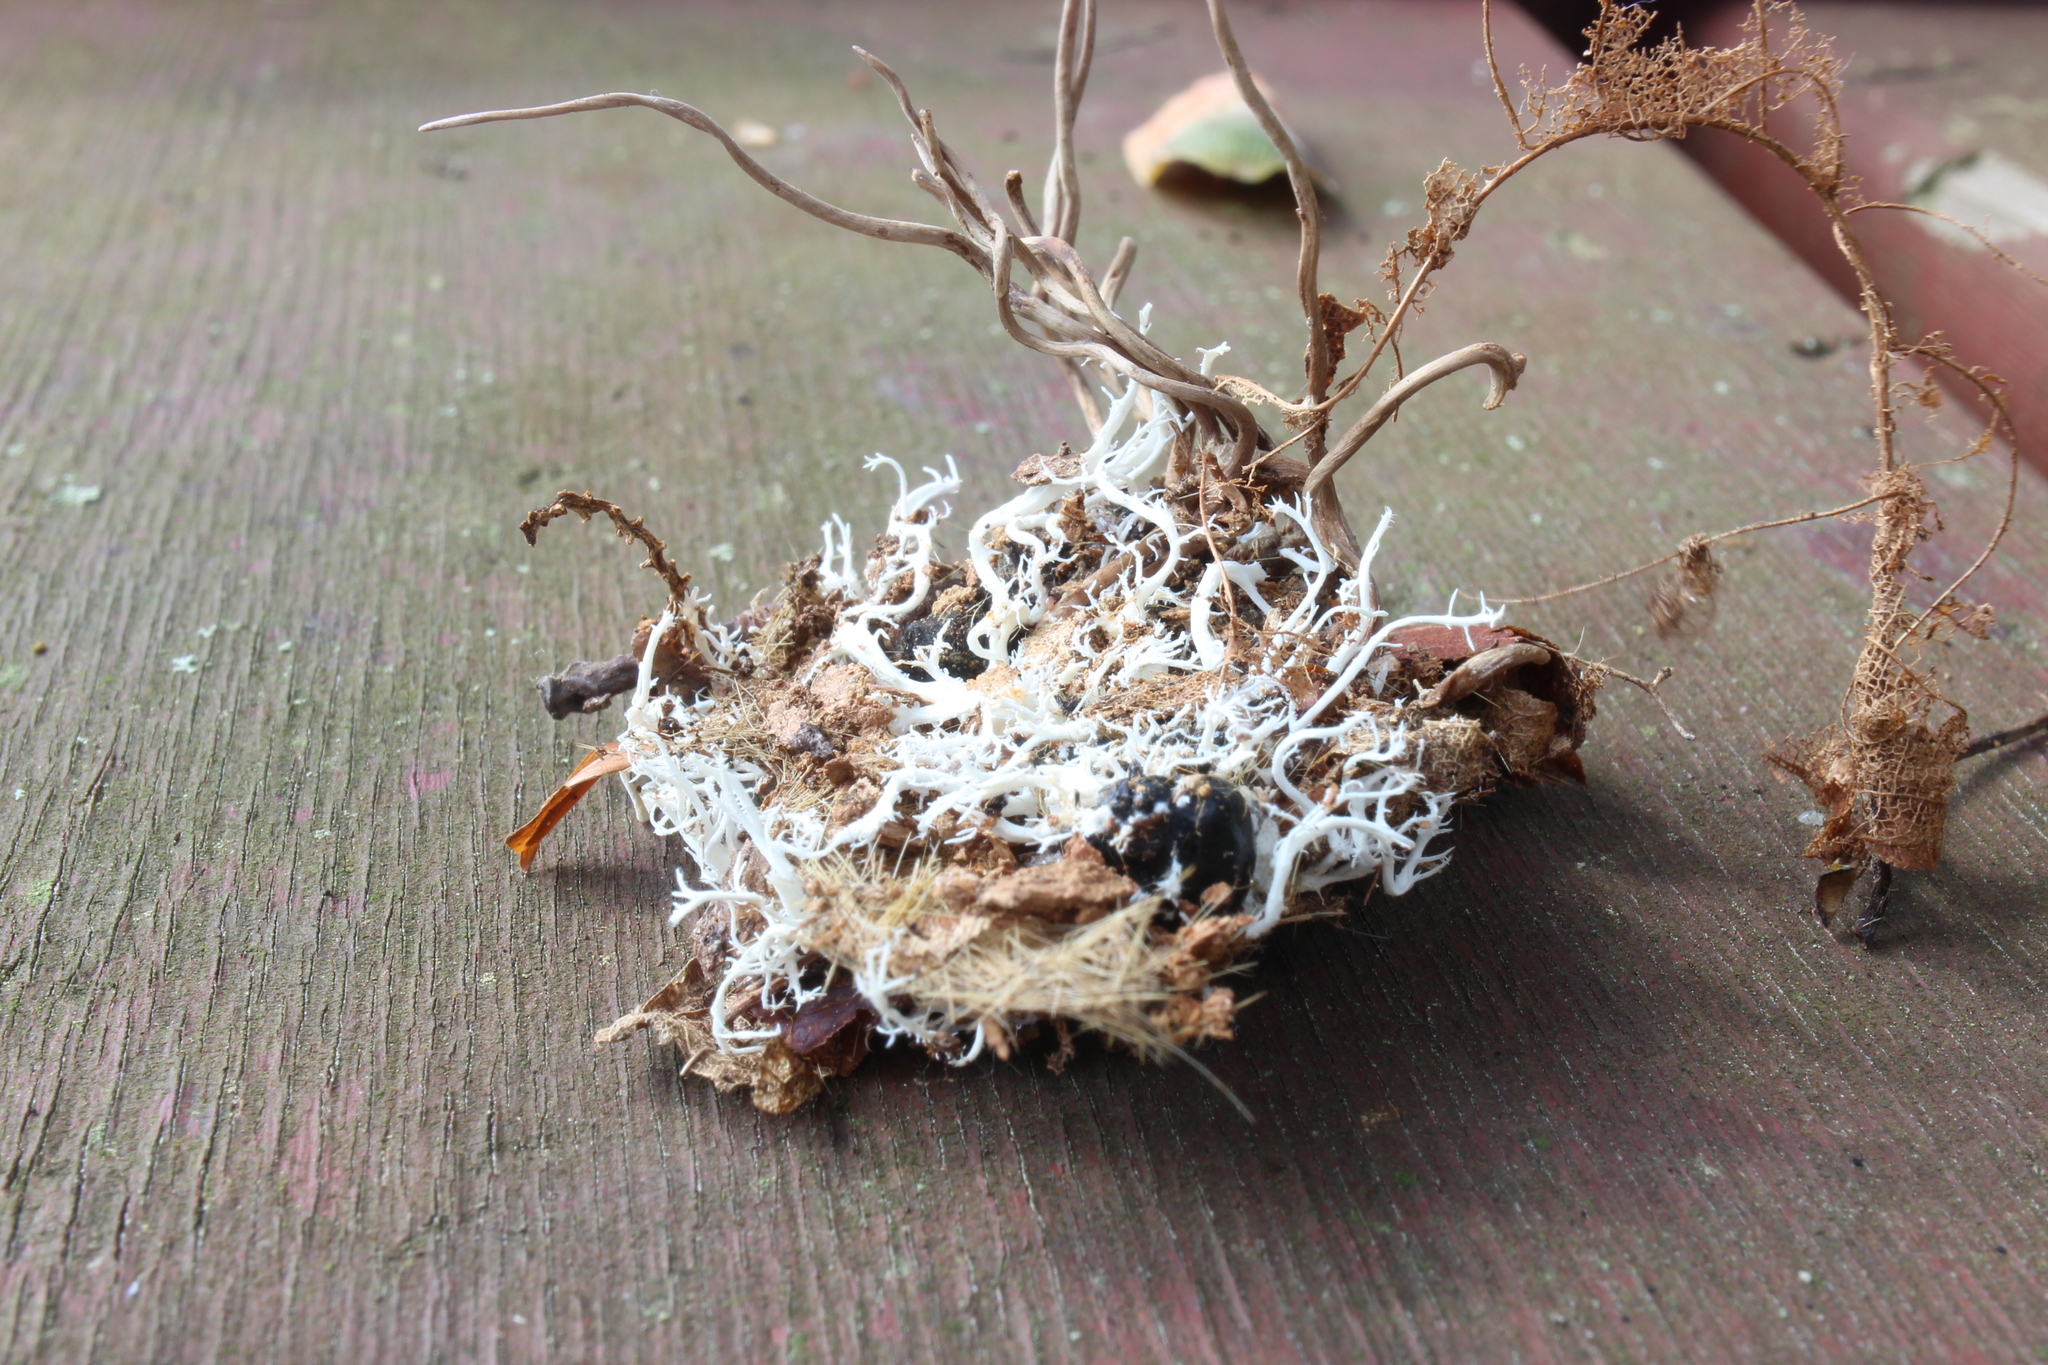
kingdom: Fungi
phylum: Ascomycota
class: Sordariomycetes
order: Hypocreales
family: Ophiocordycipitaceae
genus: Ophiocordyceps
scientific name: Ophiocordyceps michiganensis
